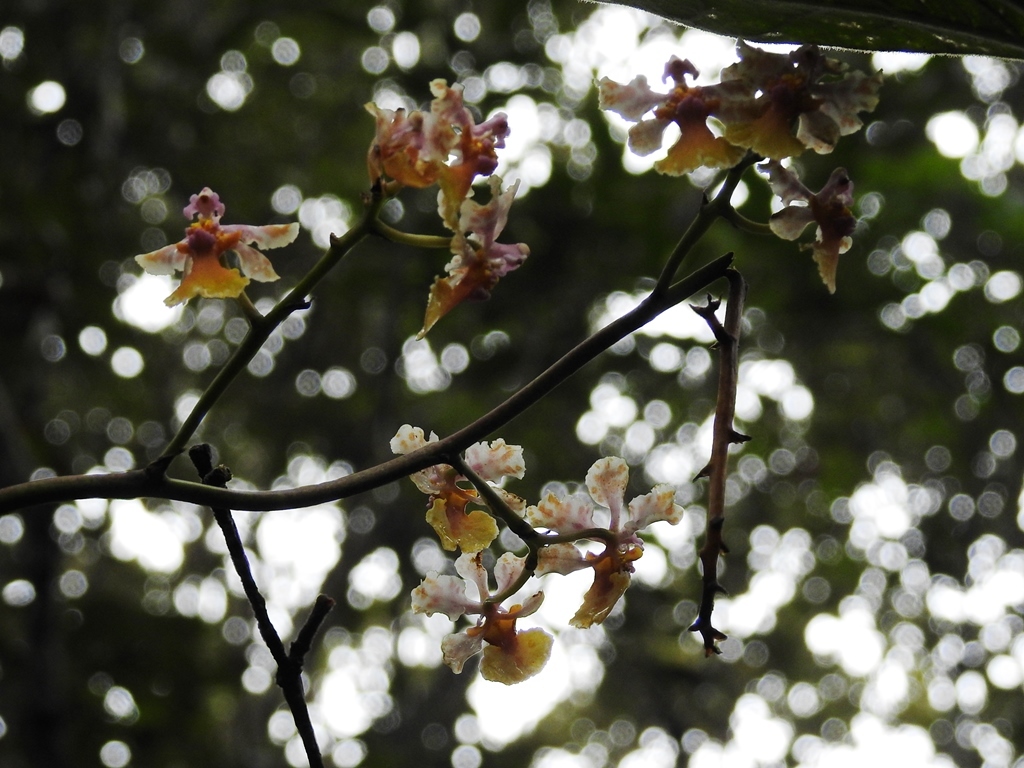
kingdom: Plantae
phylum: Tracheophyta
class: Liliopsida
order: Asparagales
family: Orchidaceae
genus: Trichocentrum
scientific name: Trichocentrum andreanum
